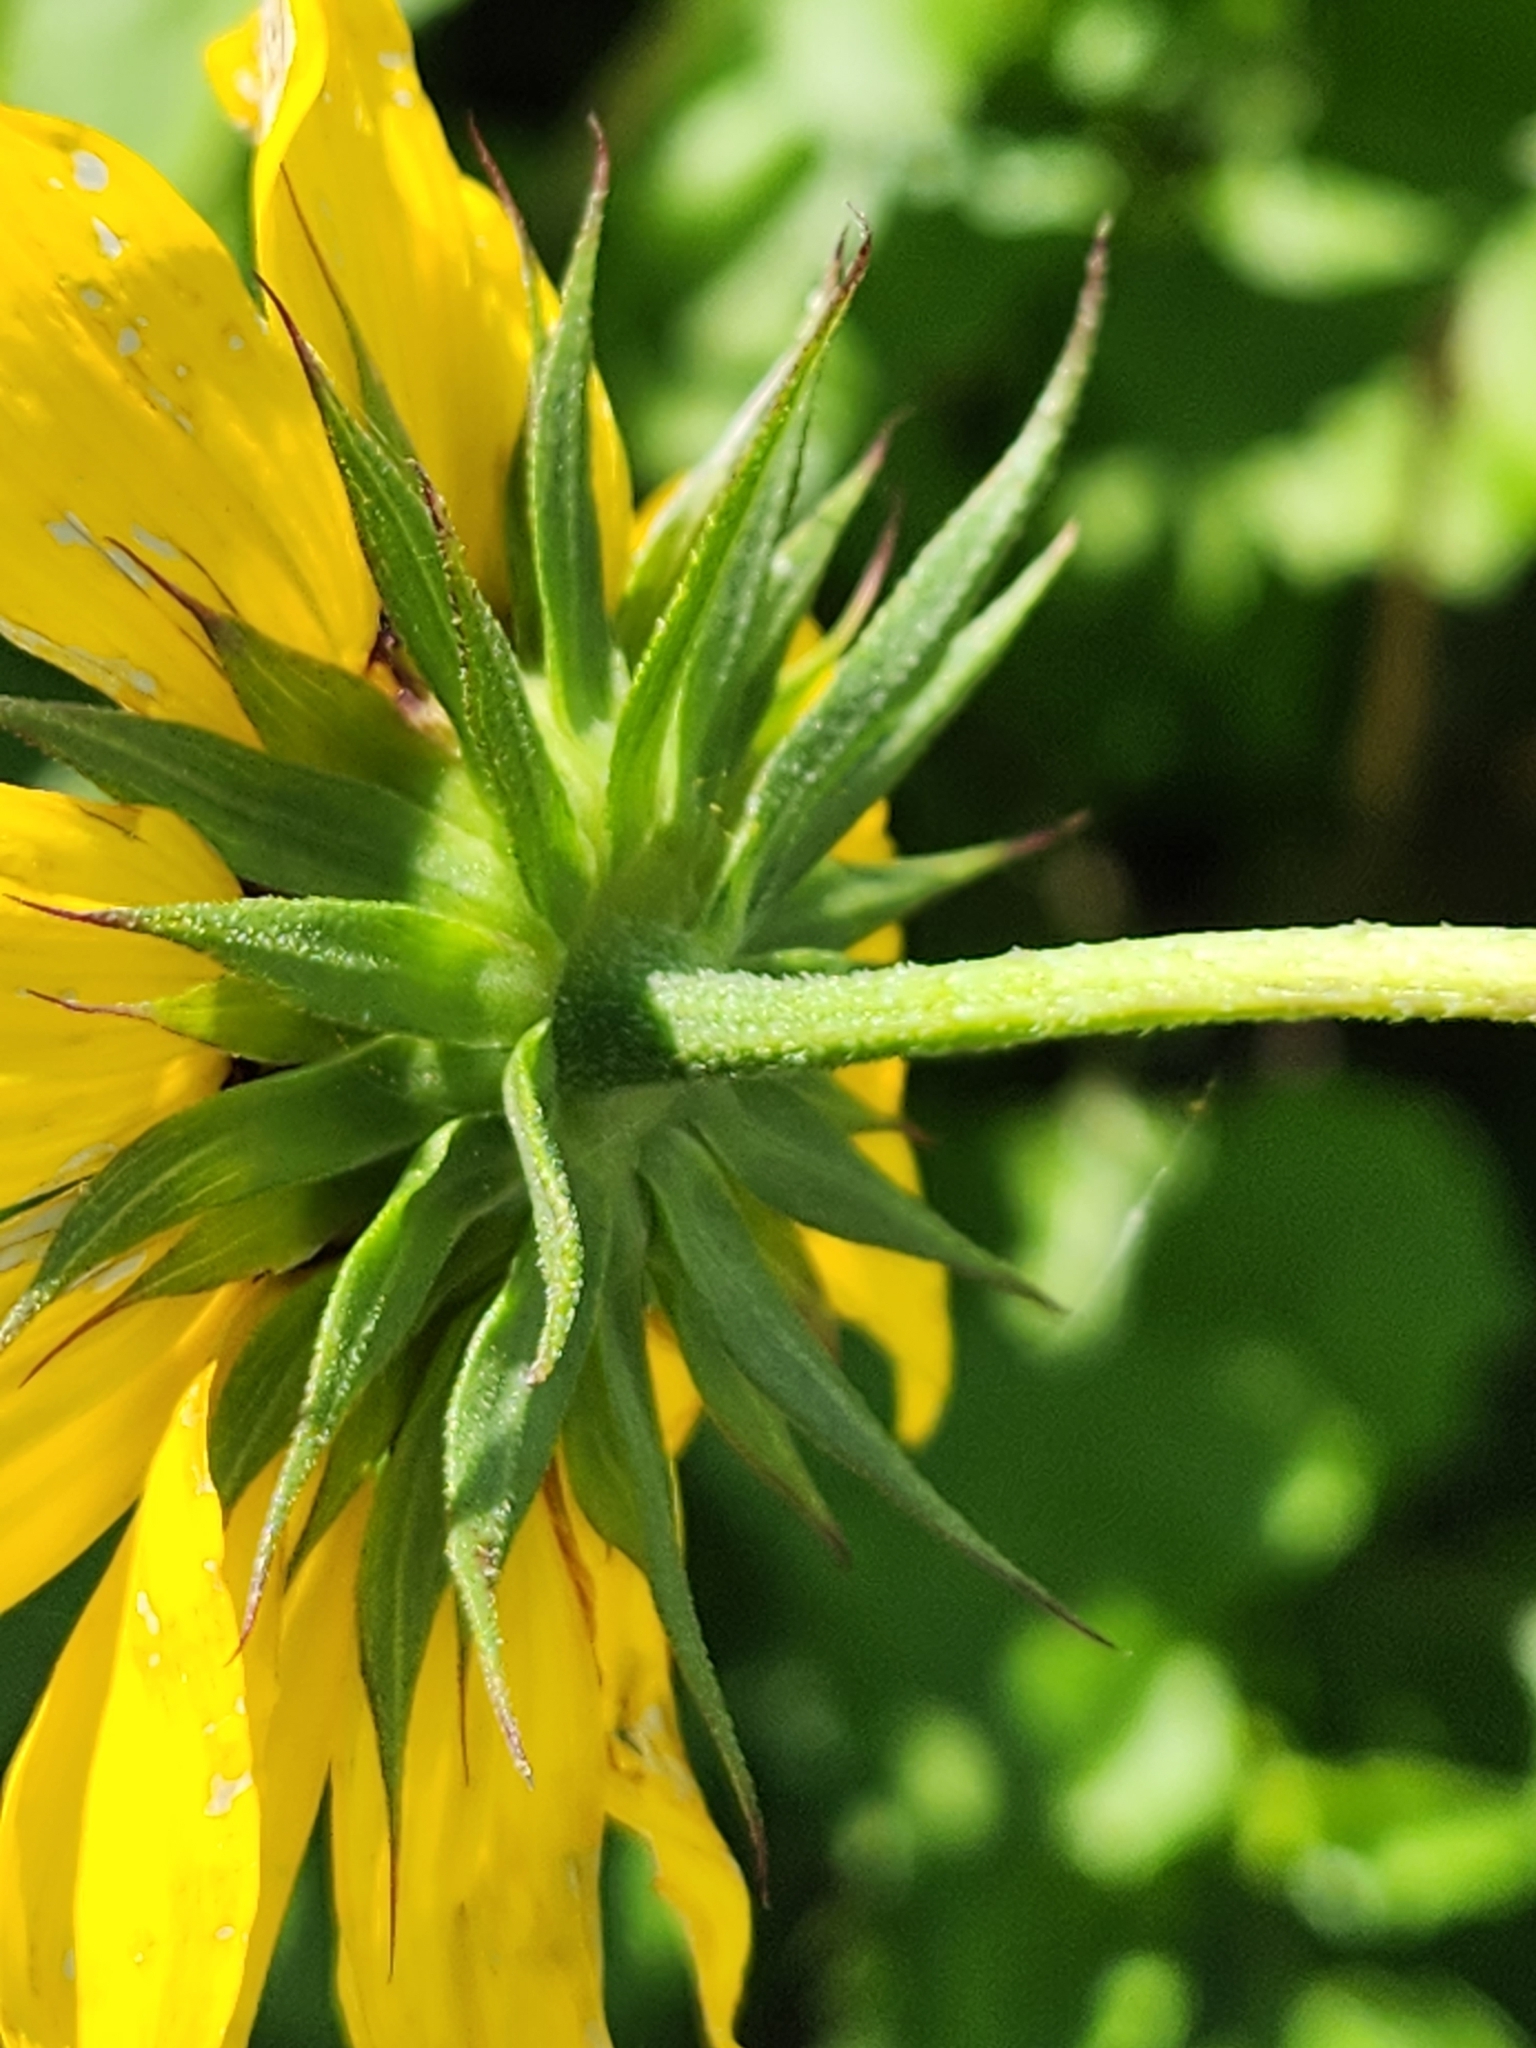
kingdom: Plantae
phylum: Tracheophyta
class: Magnoliopsida
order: Asterales
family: Asteraceae
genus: Helianthus
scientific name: Helianthus debilis
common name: Weak sunflower
